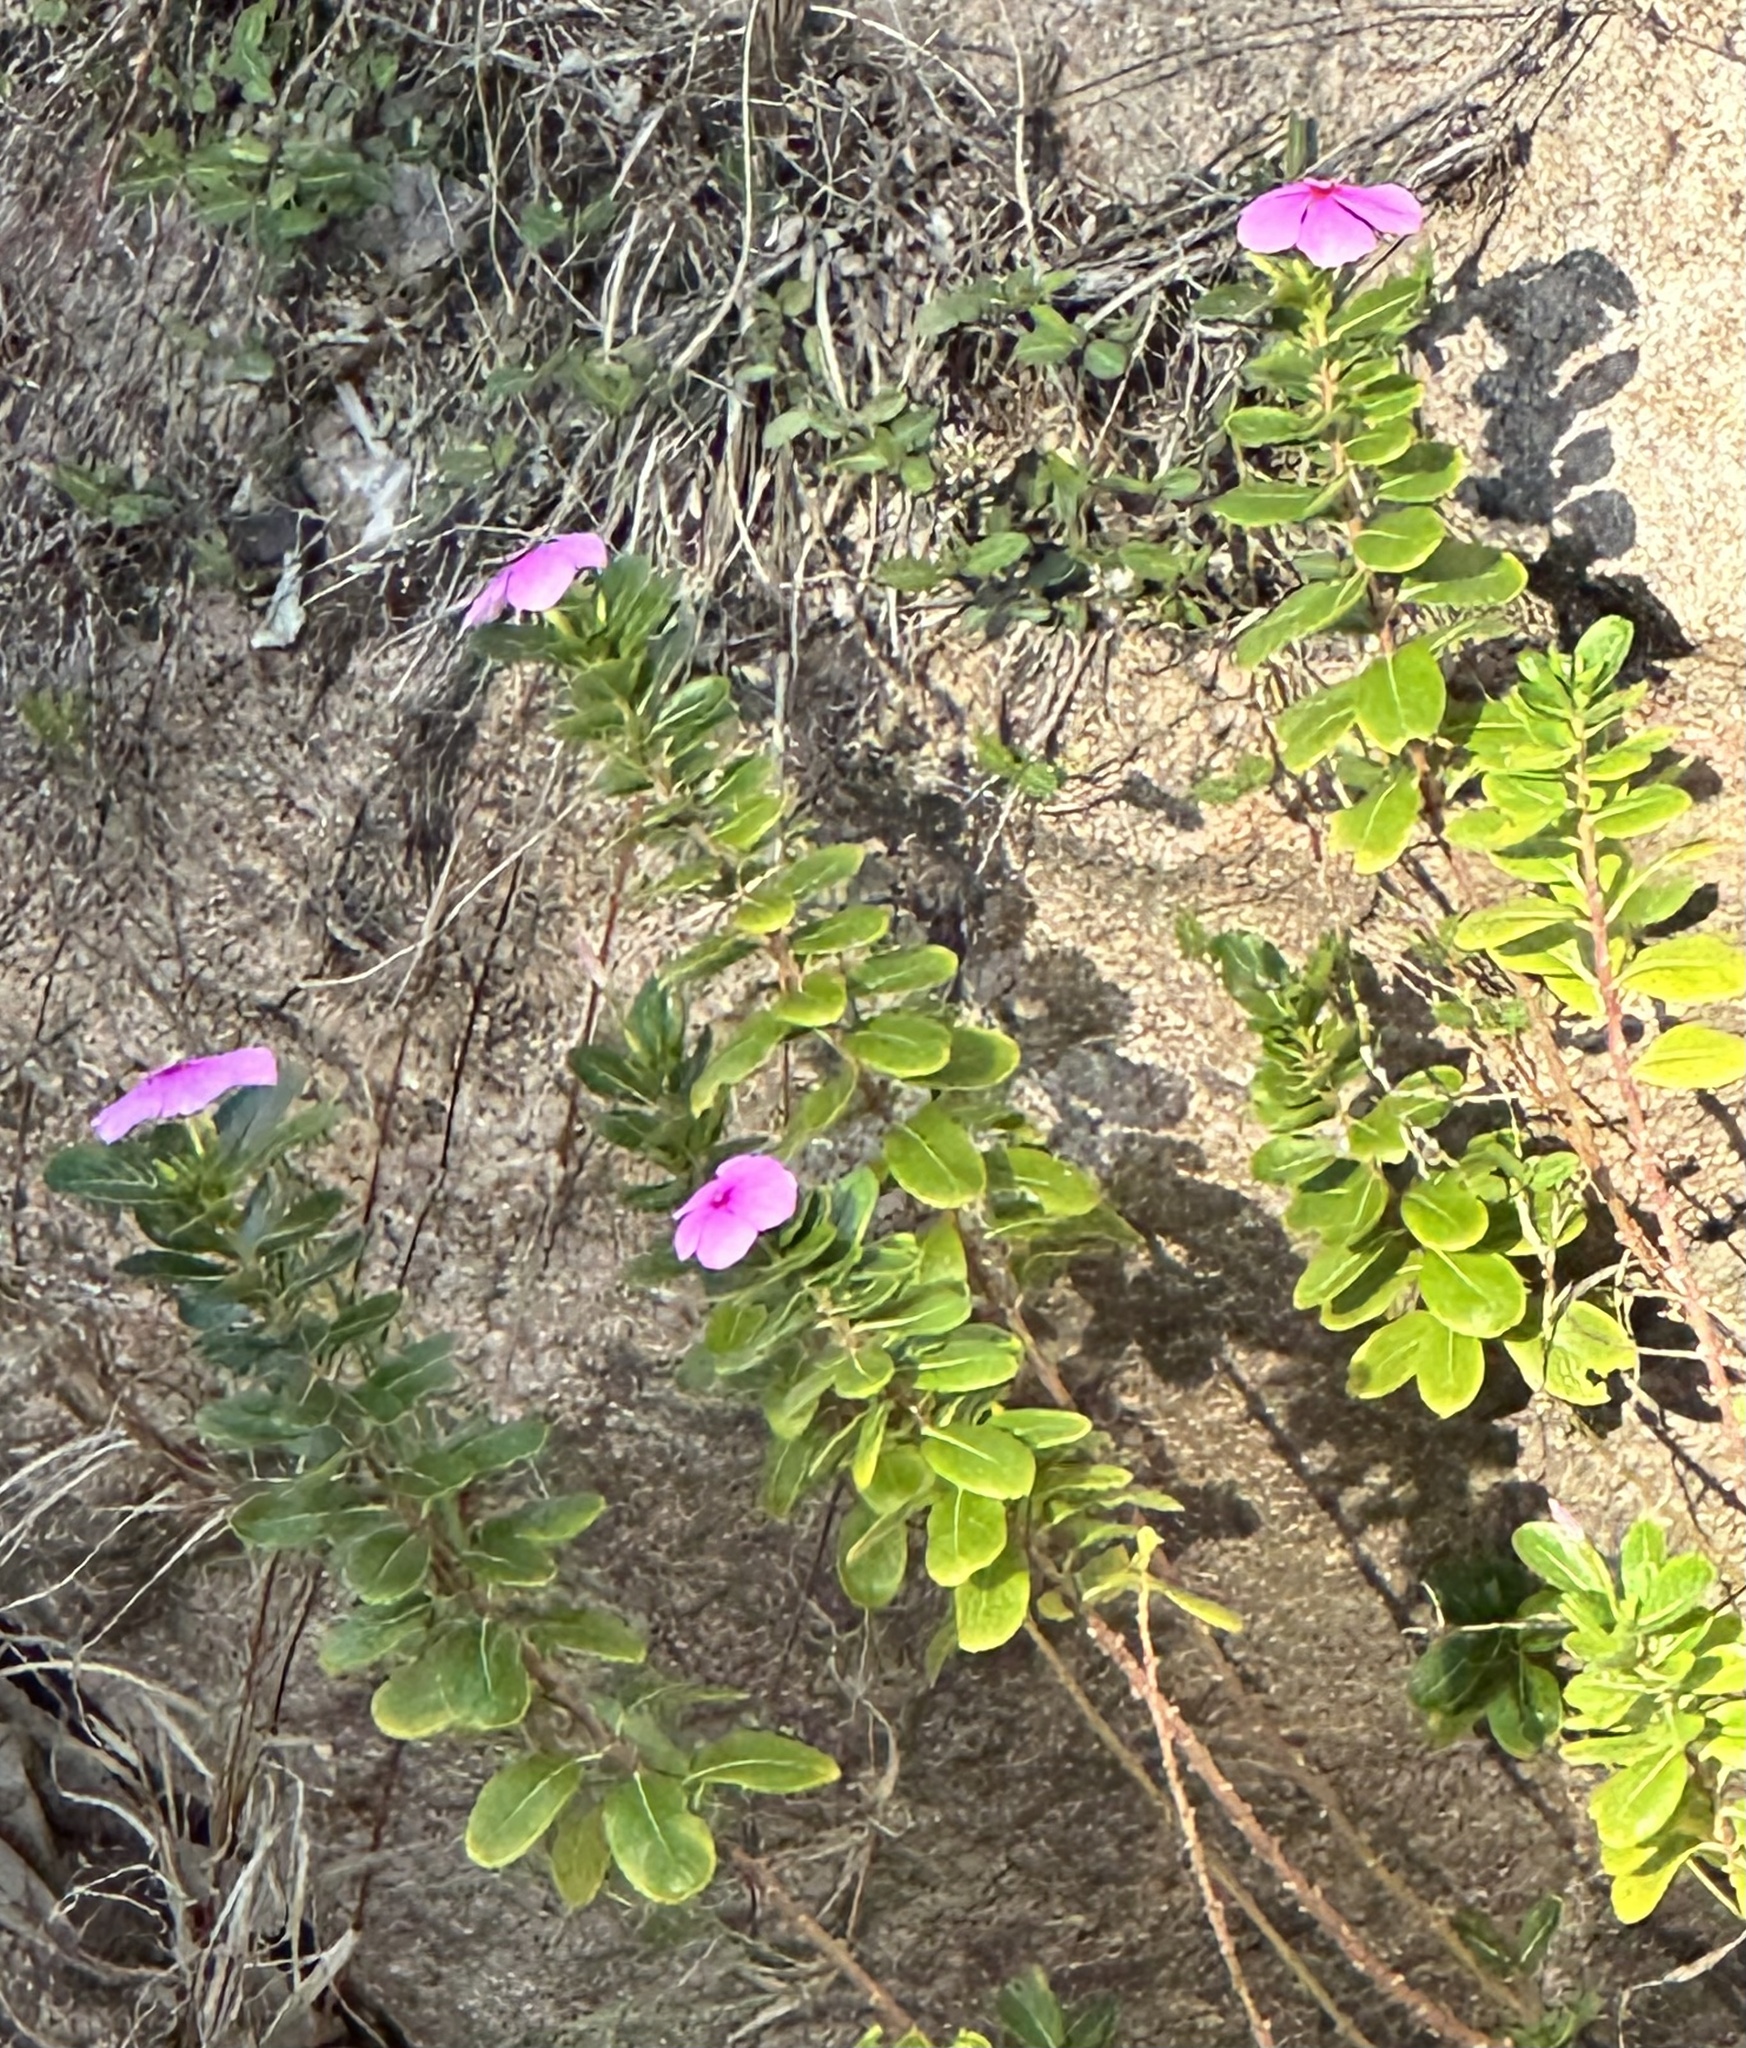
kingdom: Plantae
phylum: Tracheophyta
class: Magnoliopsida
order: Gentianales
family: Apocynaceae
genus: Catharanthus
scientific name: Catharanthus roseus
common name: Madagascar periwinkle
